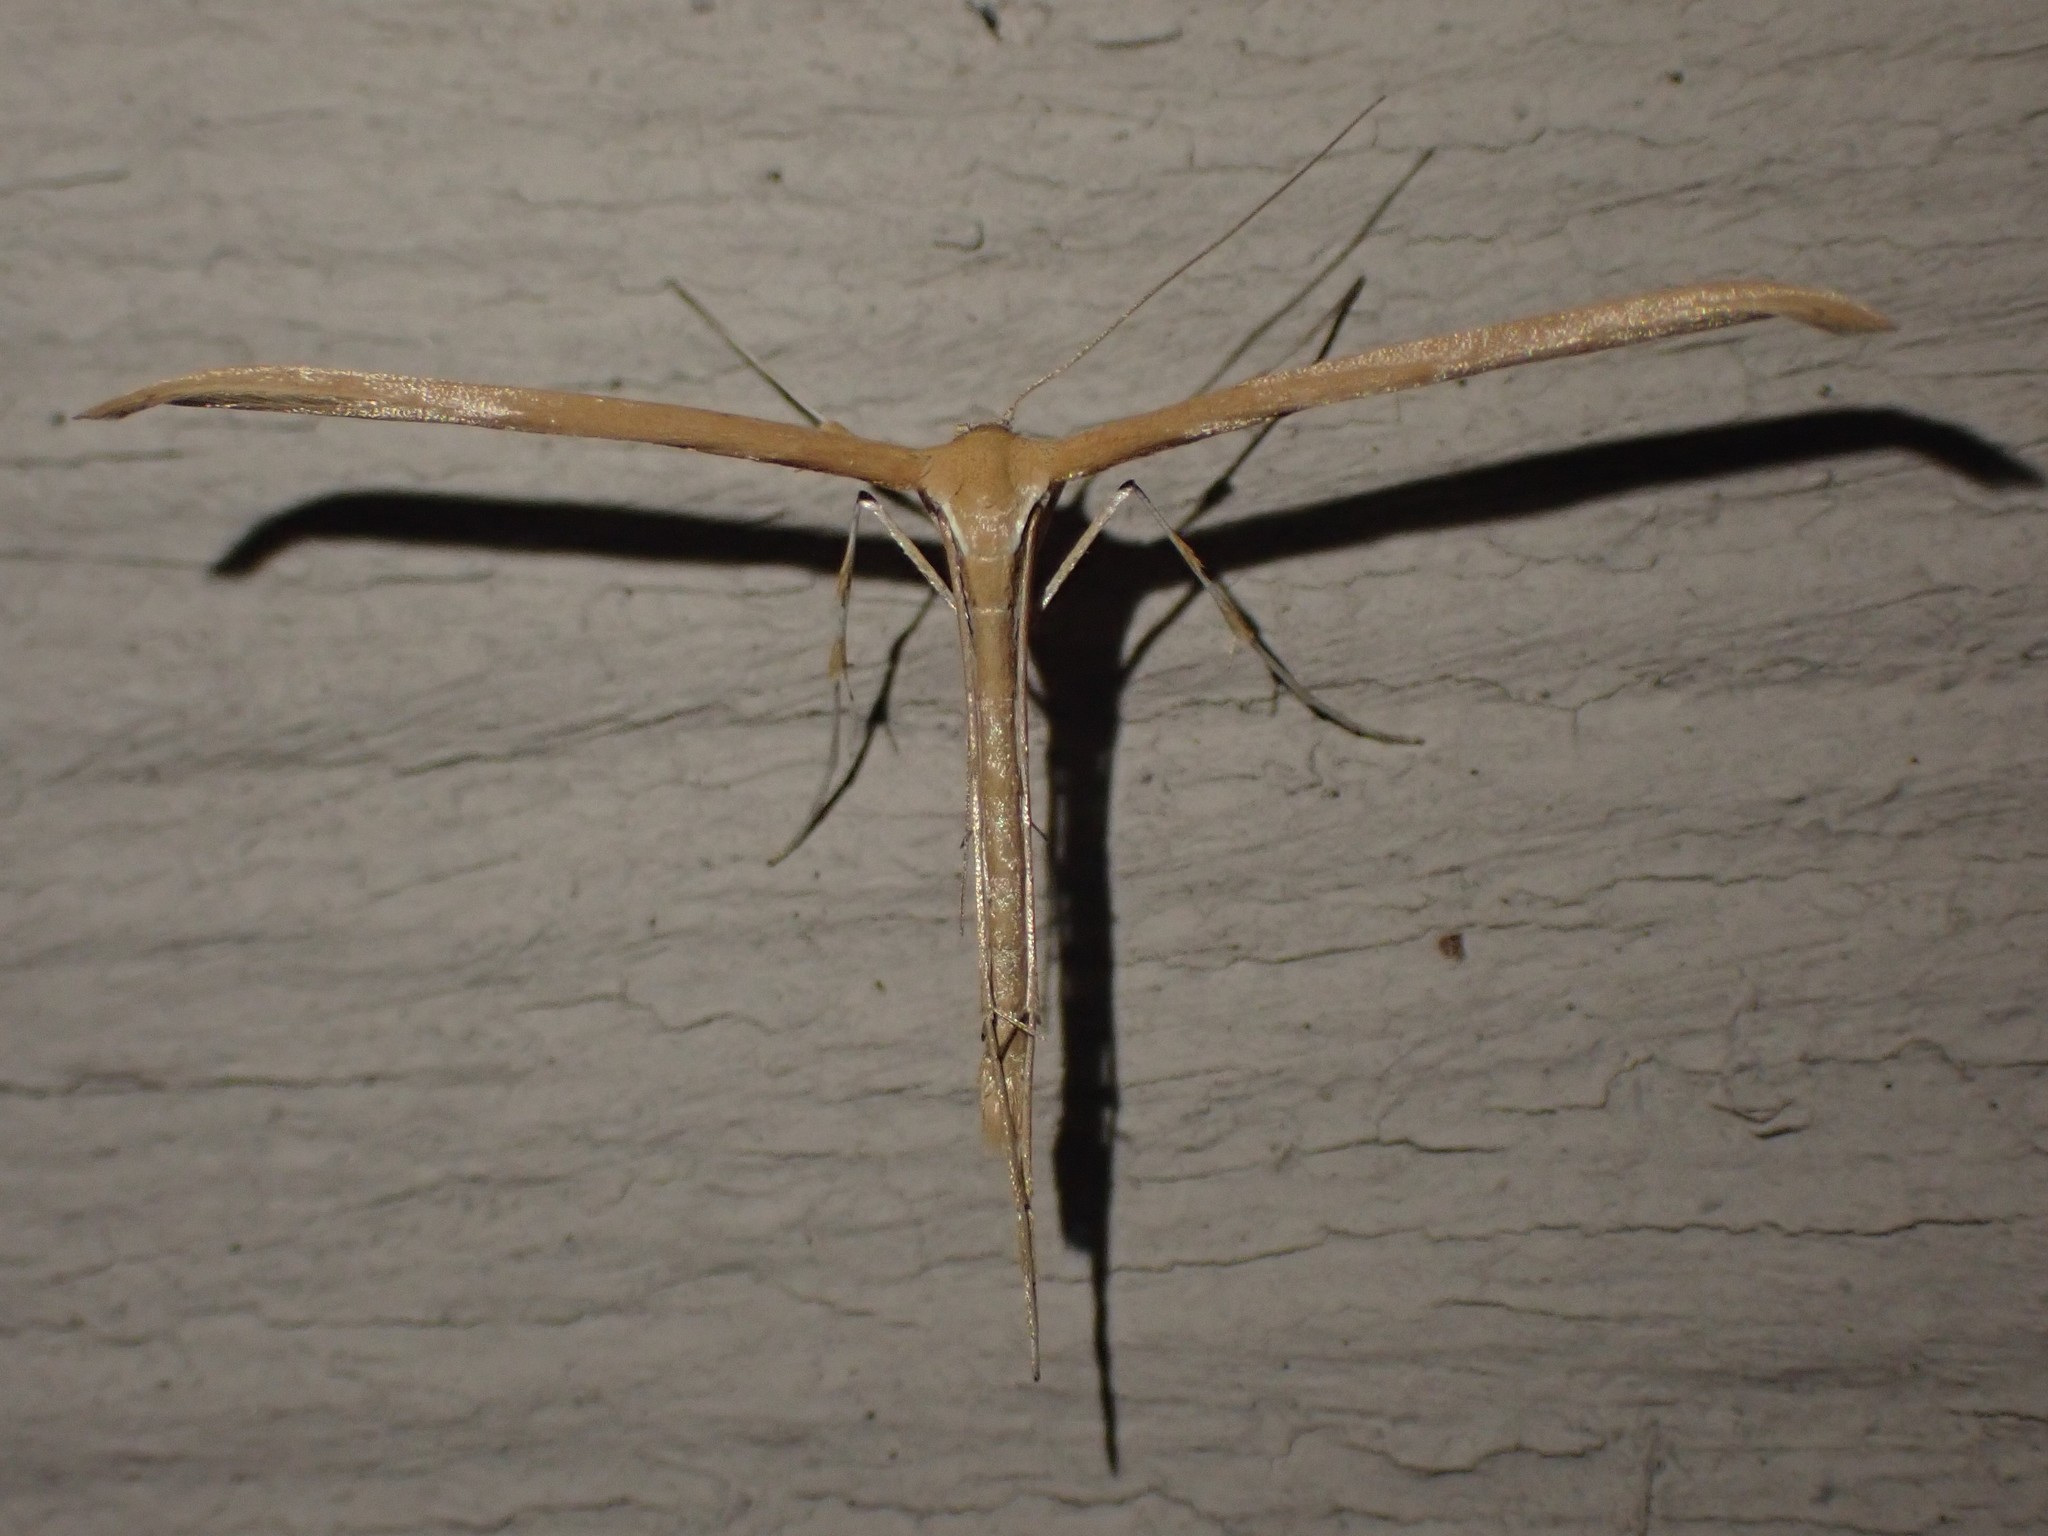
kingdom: Animalia
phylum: Arthropoda
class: Insecta
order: Lepidoptera
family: Pterophoridae
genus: Emmelina
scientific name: Emmelina monodactyla
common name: Common plume
